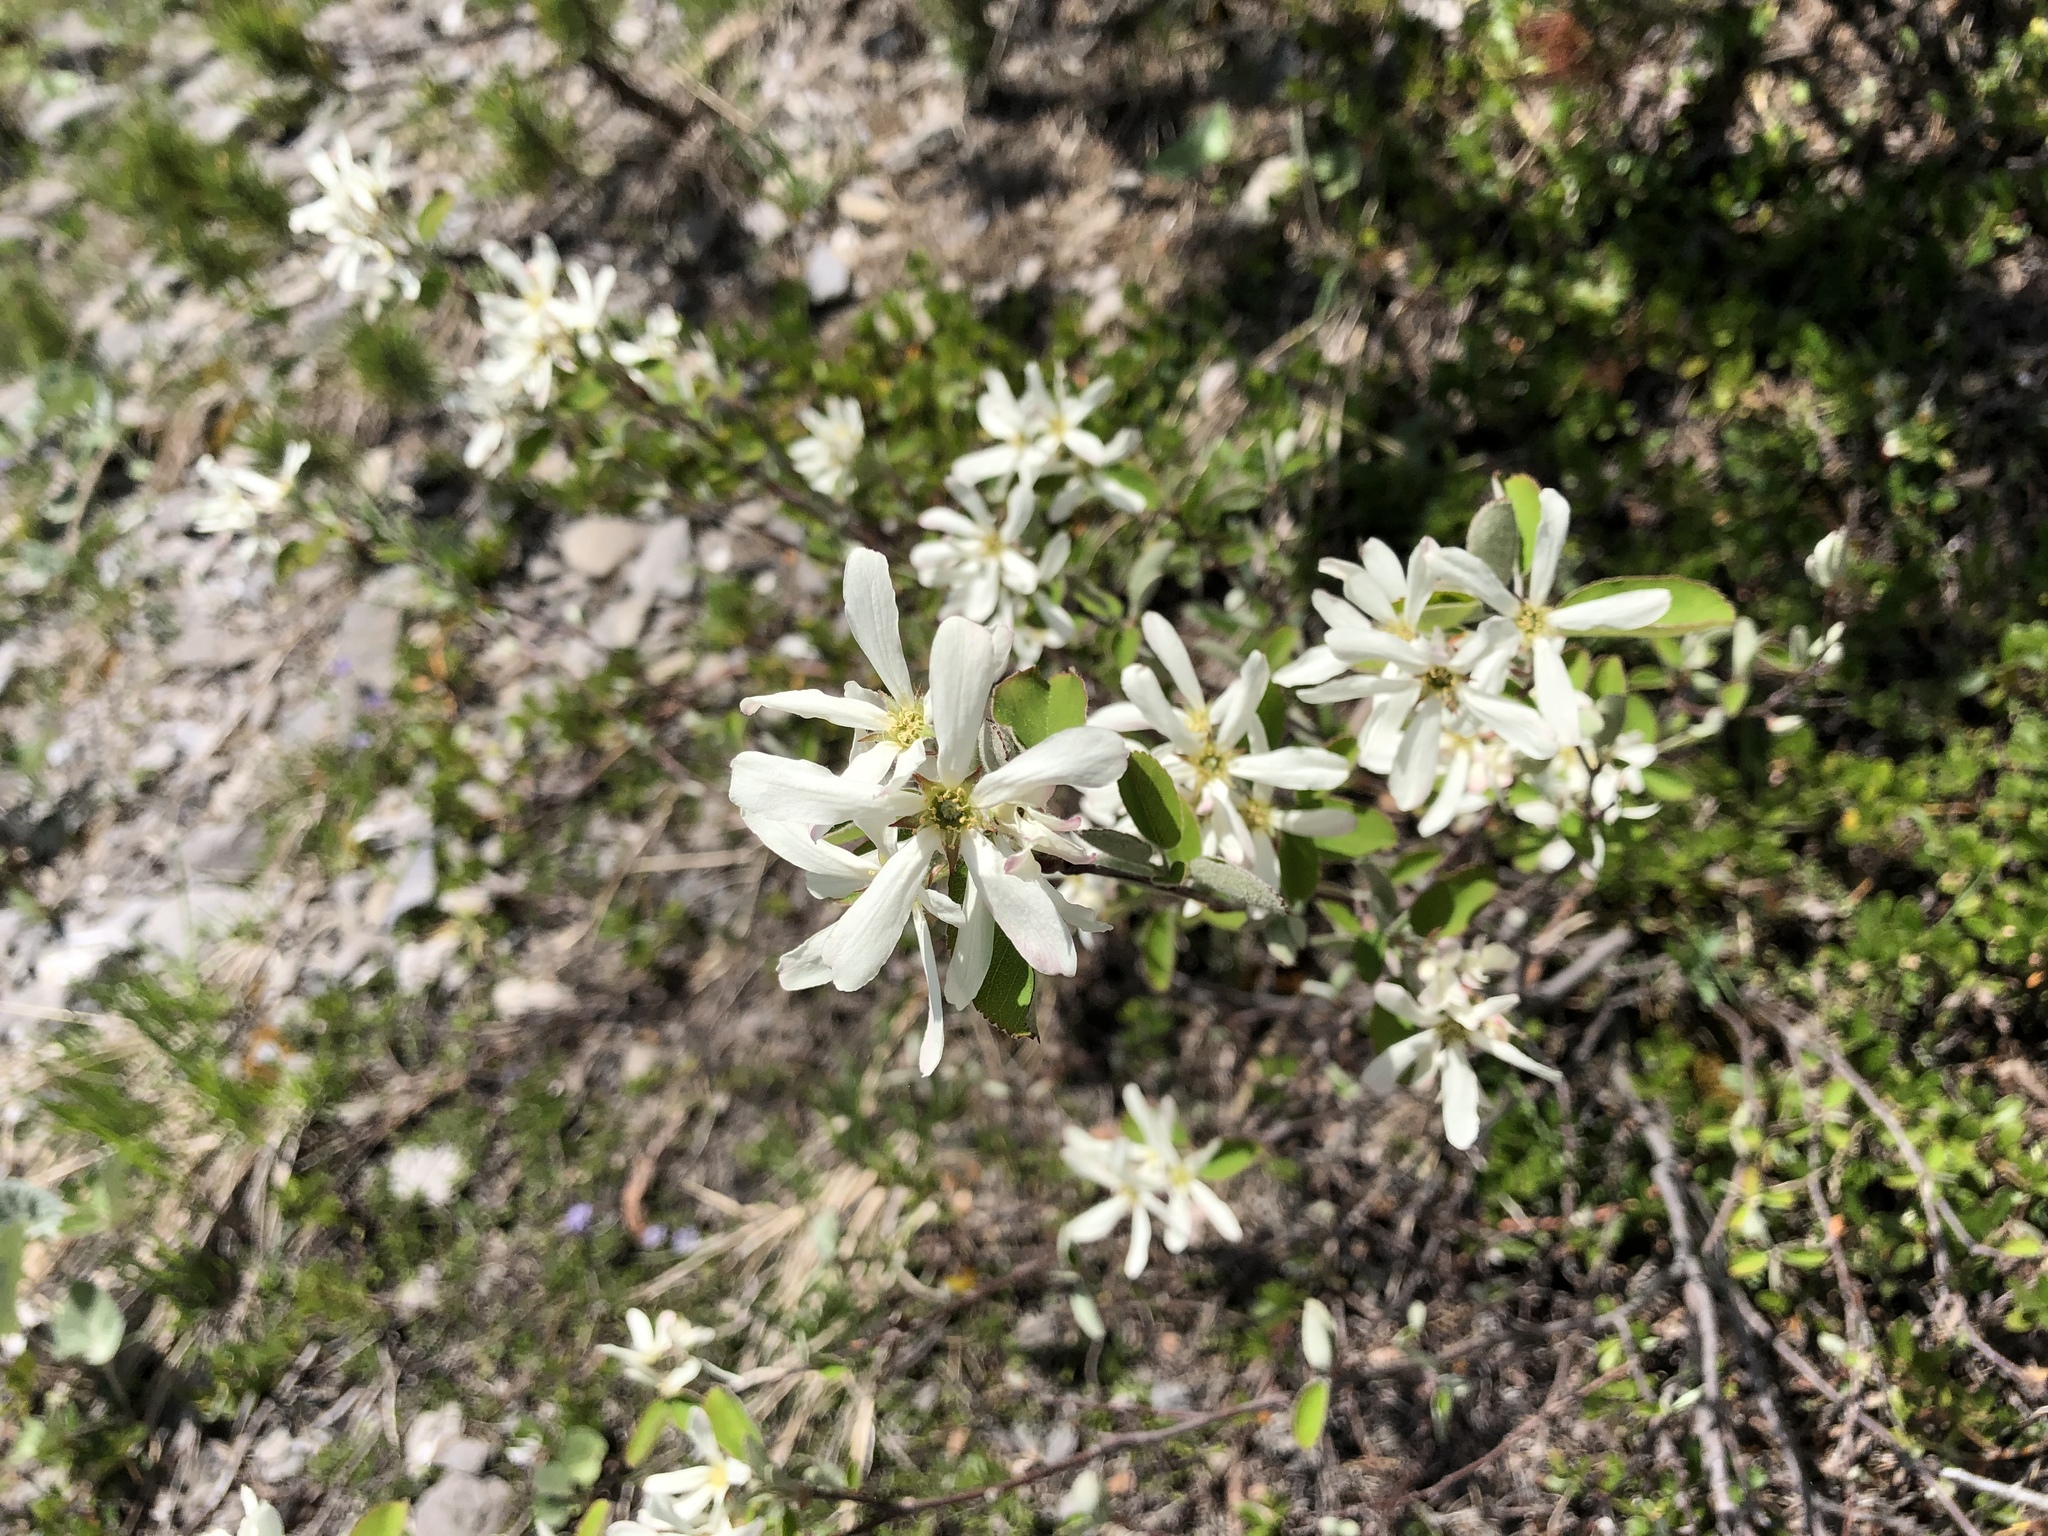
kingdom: Plantae
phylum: Tracheophyta
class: Magnoliopsida
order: Rosales
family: Rosaceae
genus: Amelanchier
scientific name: Amelanchier ovalis
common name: Serviceberry
